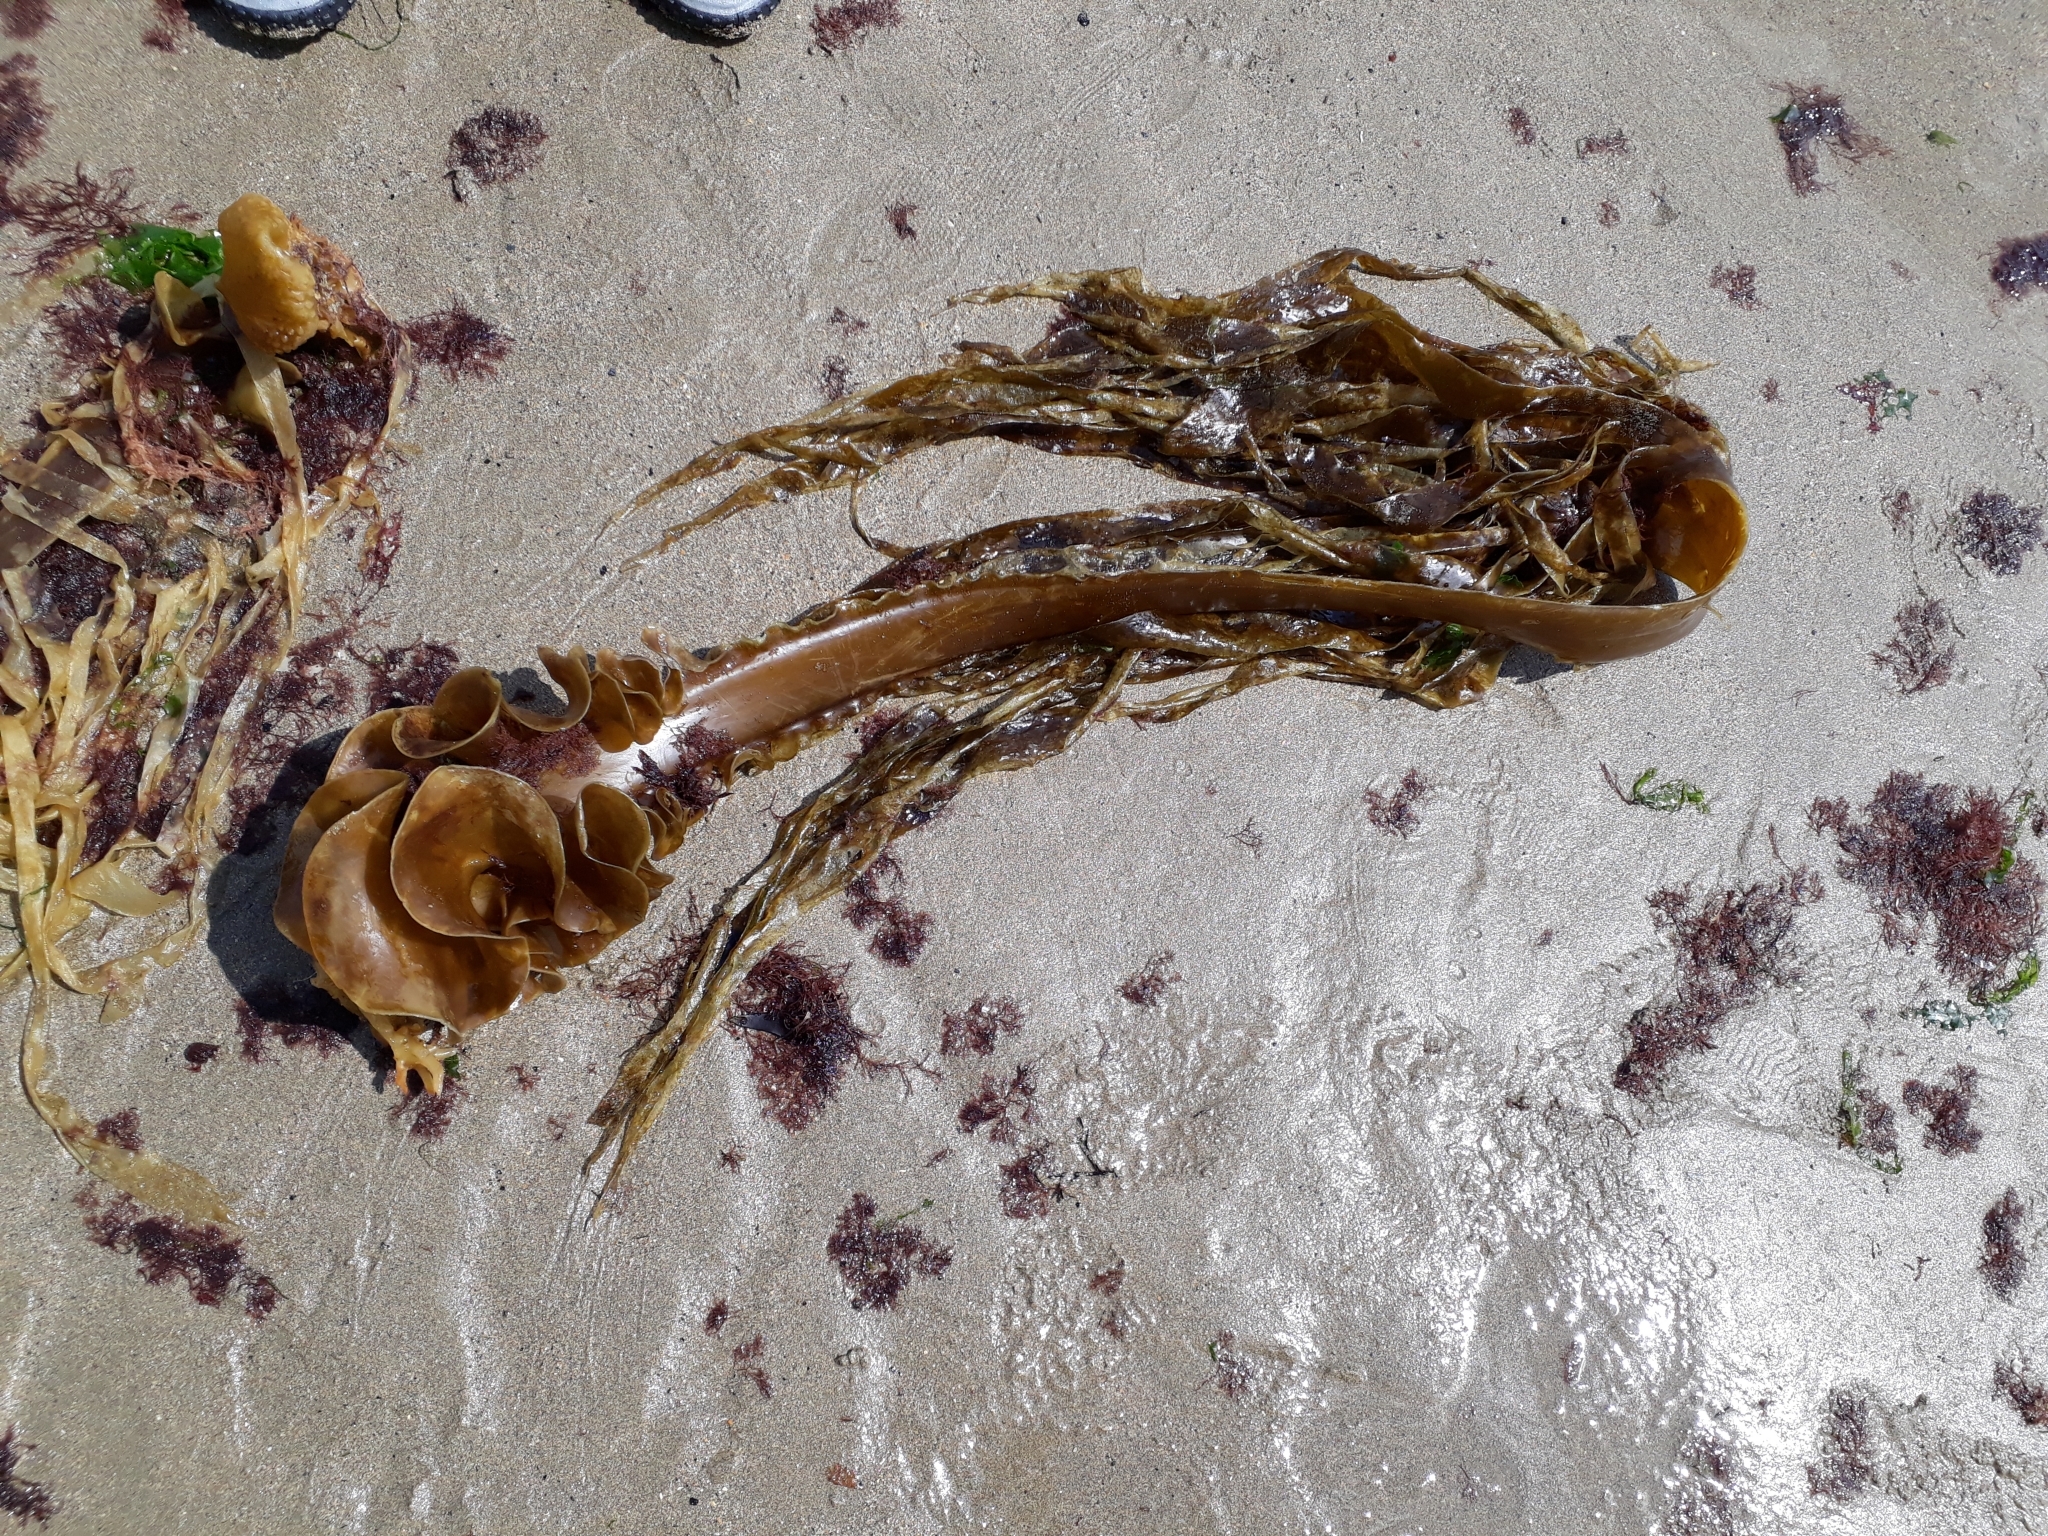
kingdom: Chromista
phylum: Ochrophyta
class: Phaeophyceae
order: Tilopteridales
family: Phyllariaceae
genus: Saccorhiza
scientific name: Saccorhiza polyschides
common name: Furbelows
